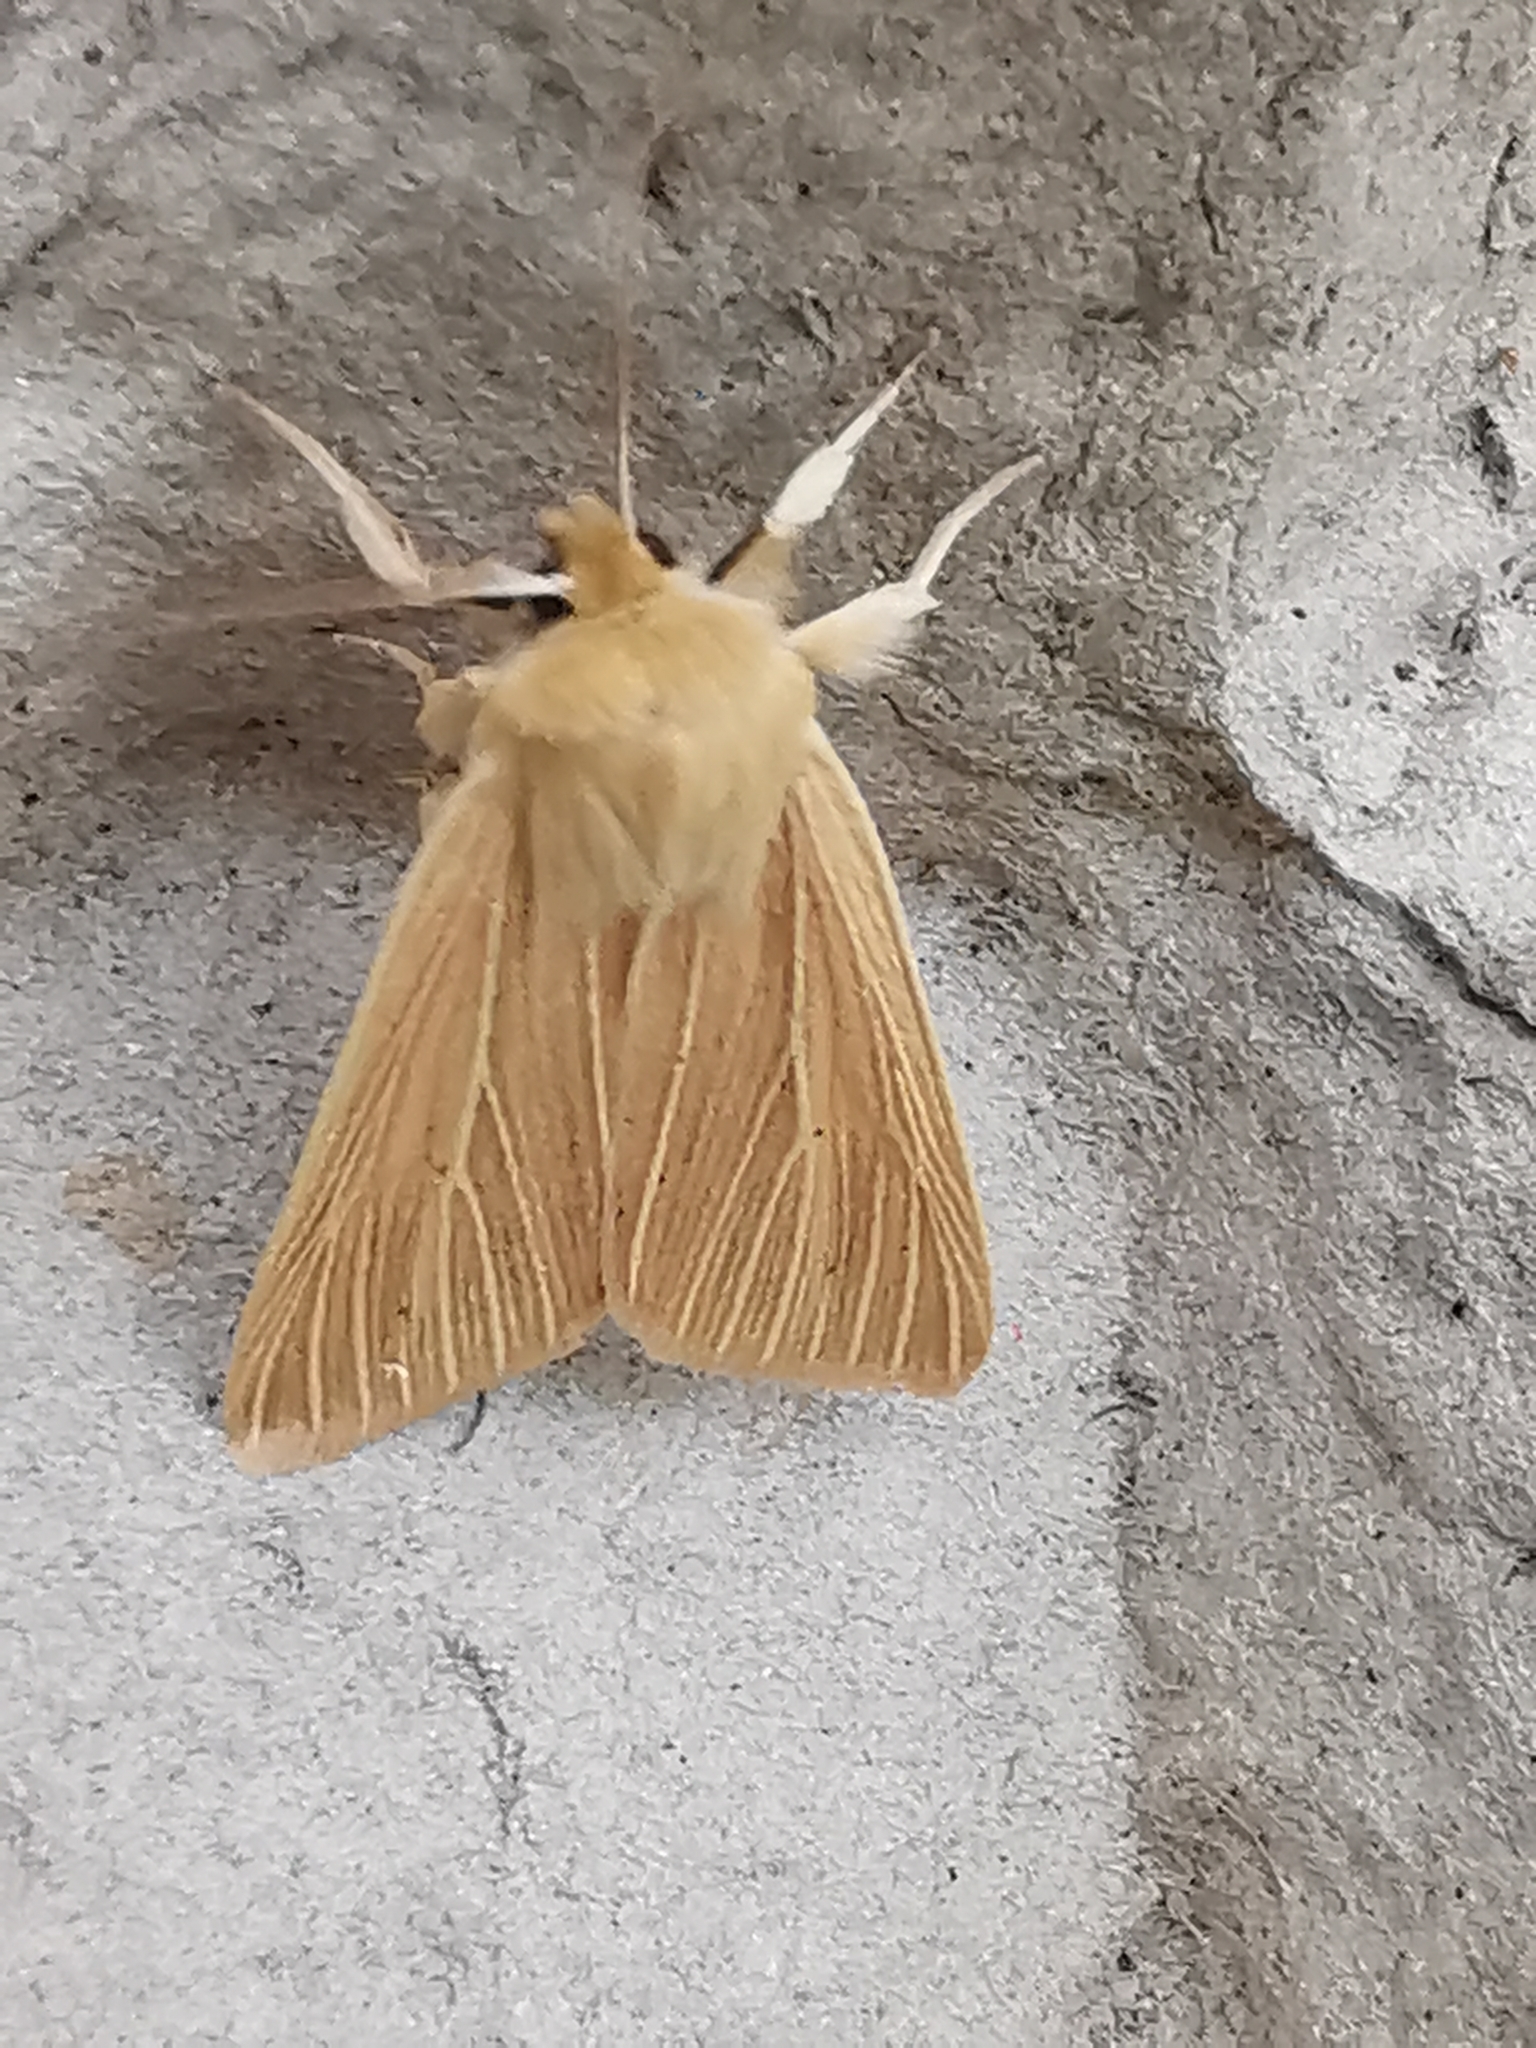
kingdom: Animalia
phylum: Arthropoda
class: Insecta
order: Lepidoptera
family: Noctuidae
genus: Mythimna
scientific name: Mythimna pallens
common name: Common wainscot
